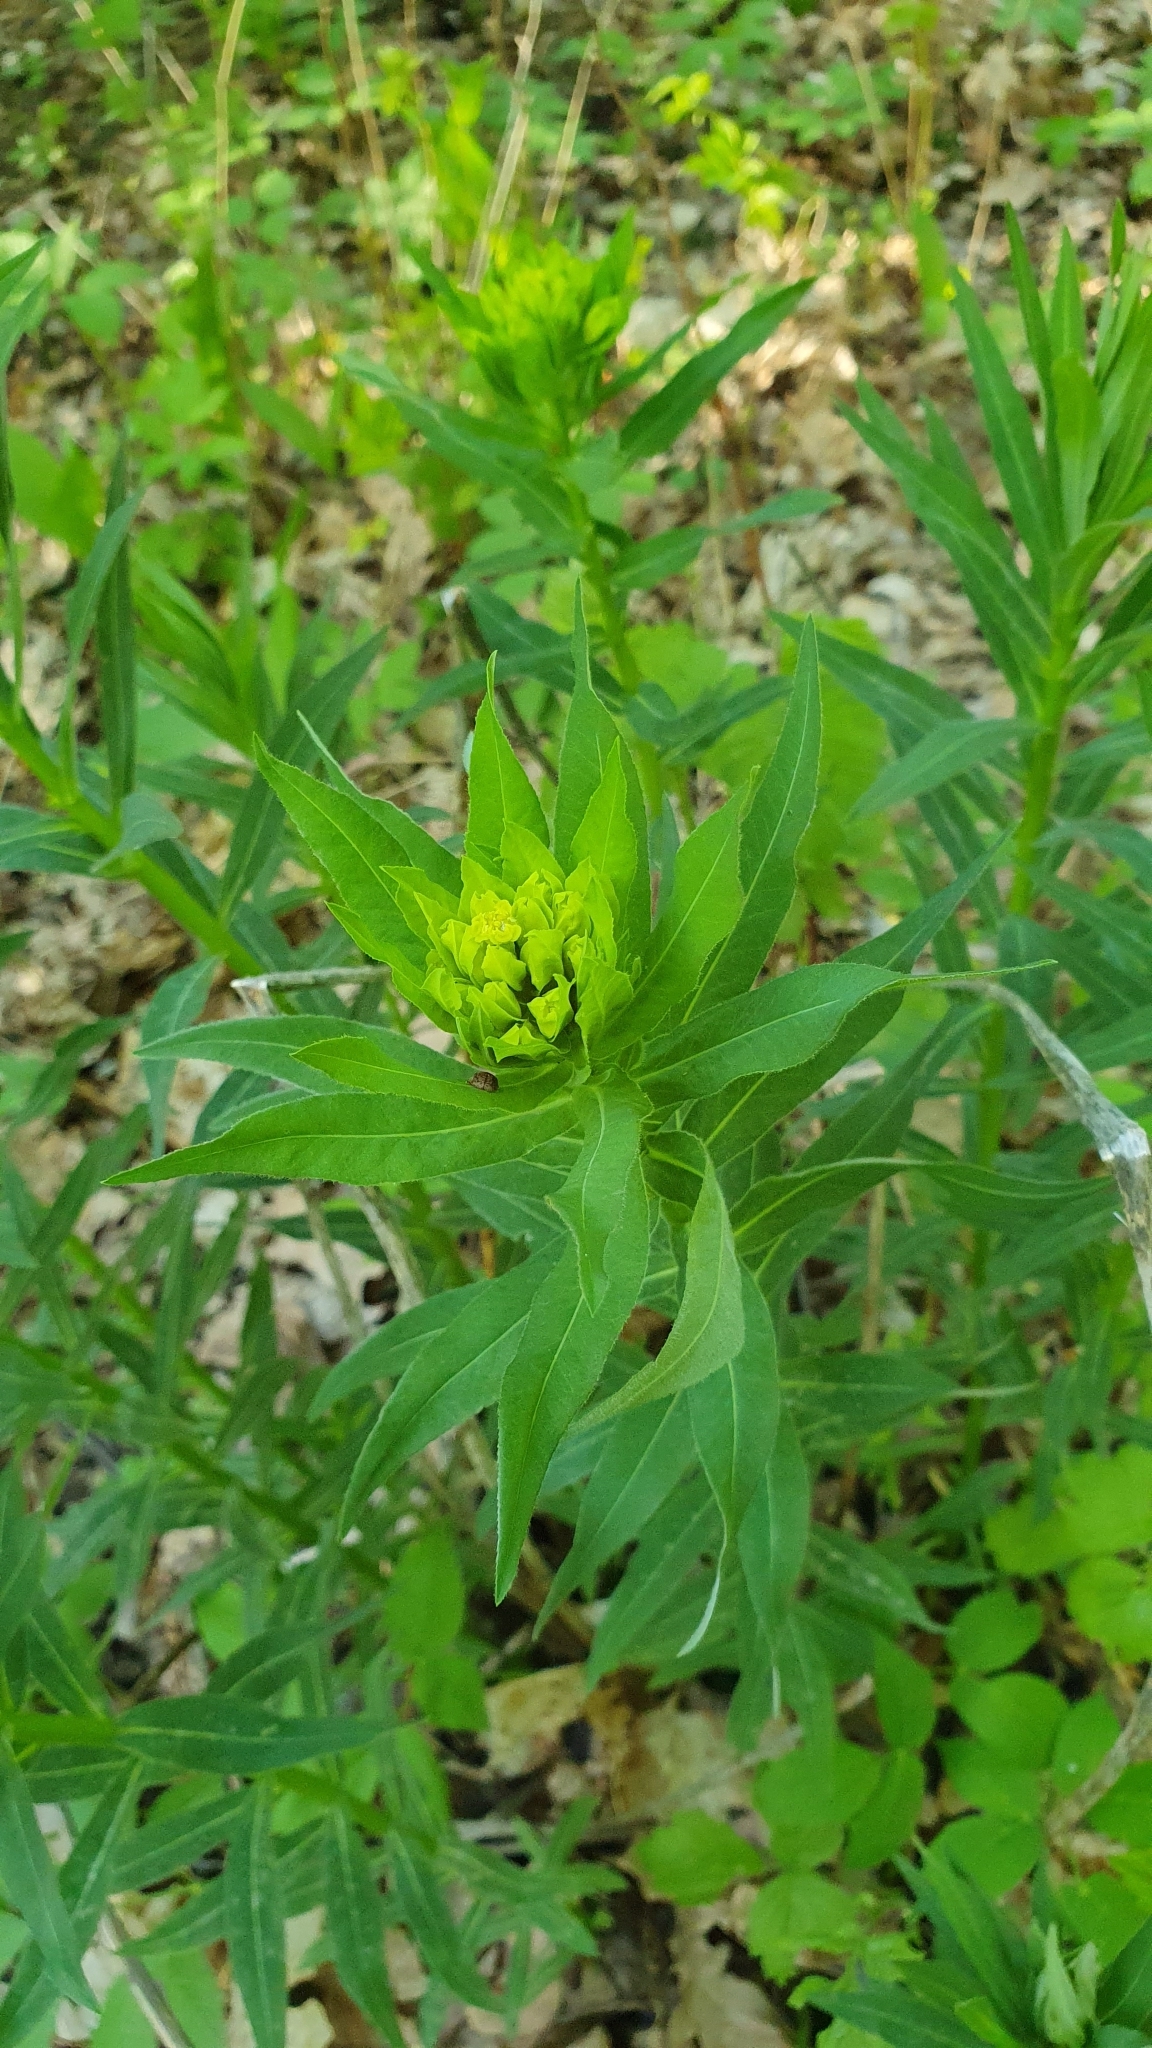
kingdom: Plantae
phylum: Tracheophyta
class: Magnoliopsida
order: Malpighiales
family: Euphorbiaceae
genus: Euphorbia
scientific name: Euphorbia semivillosa
